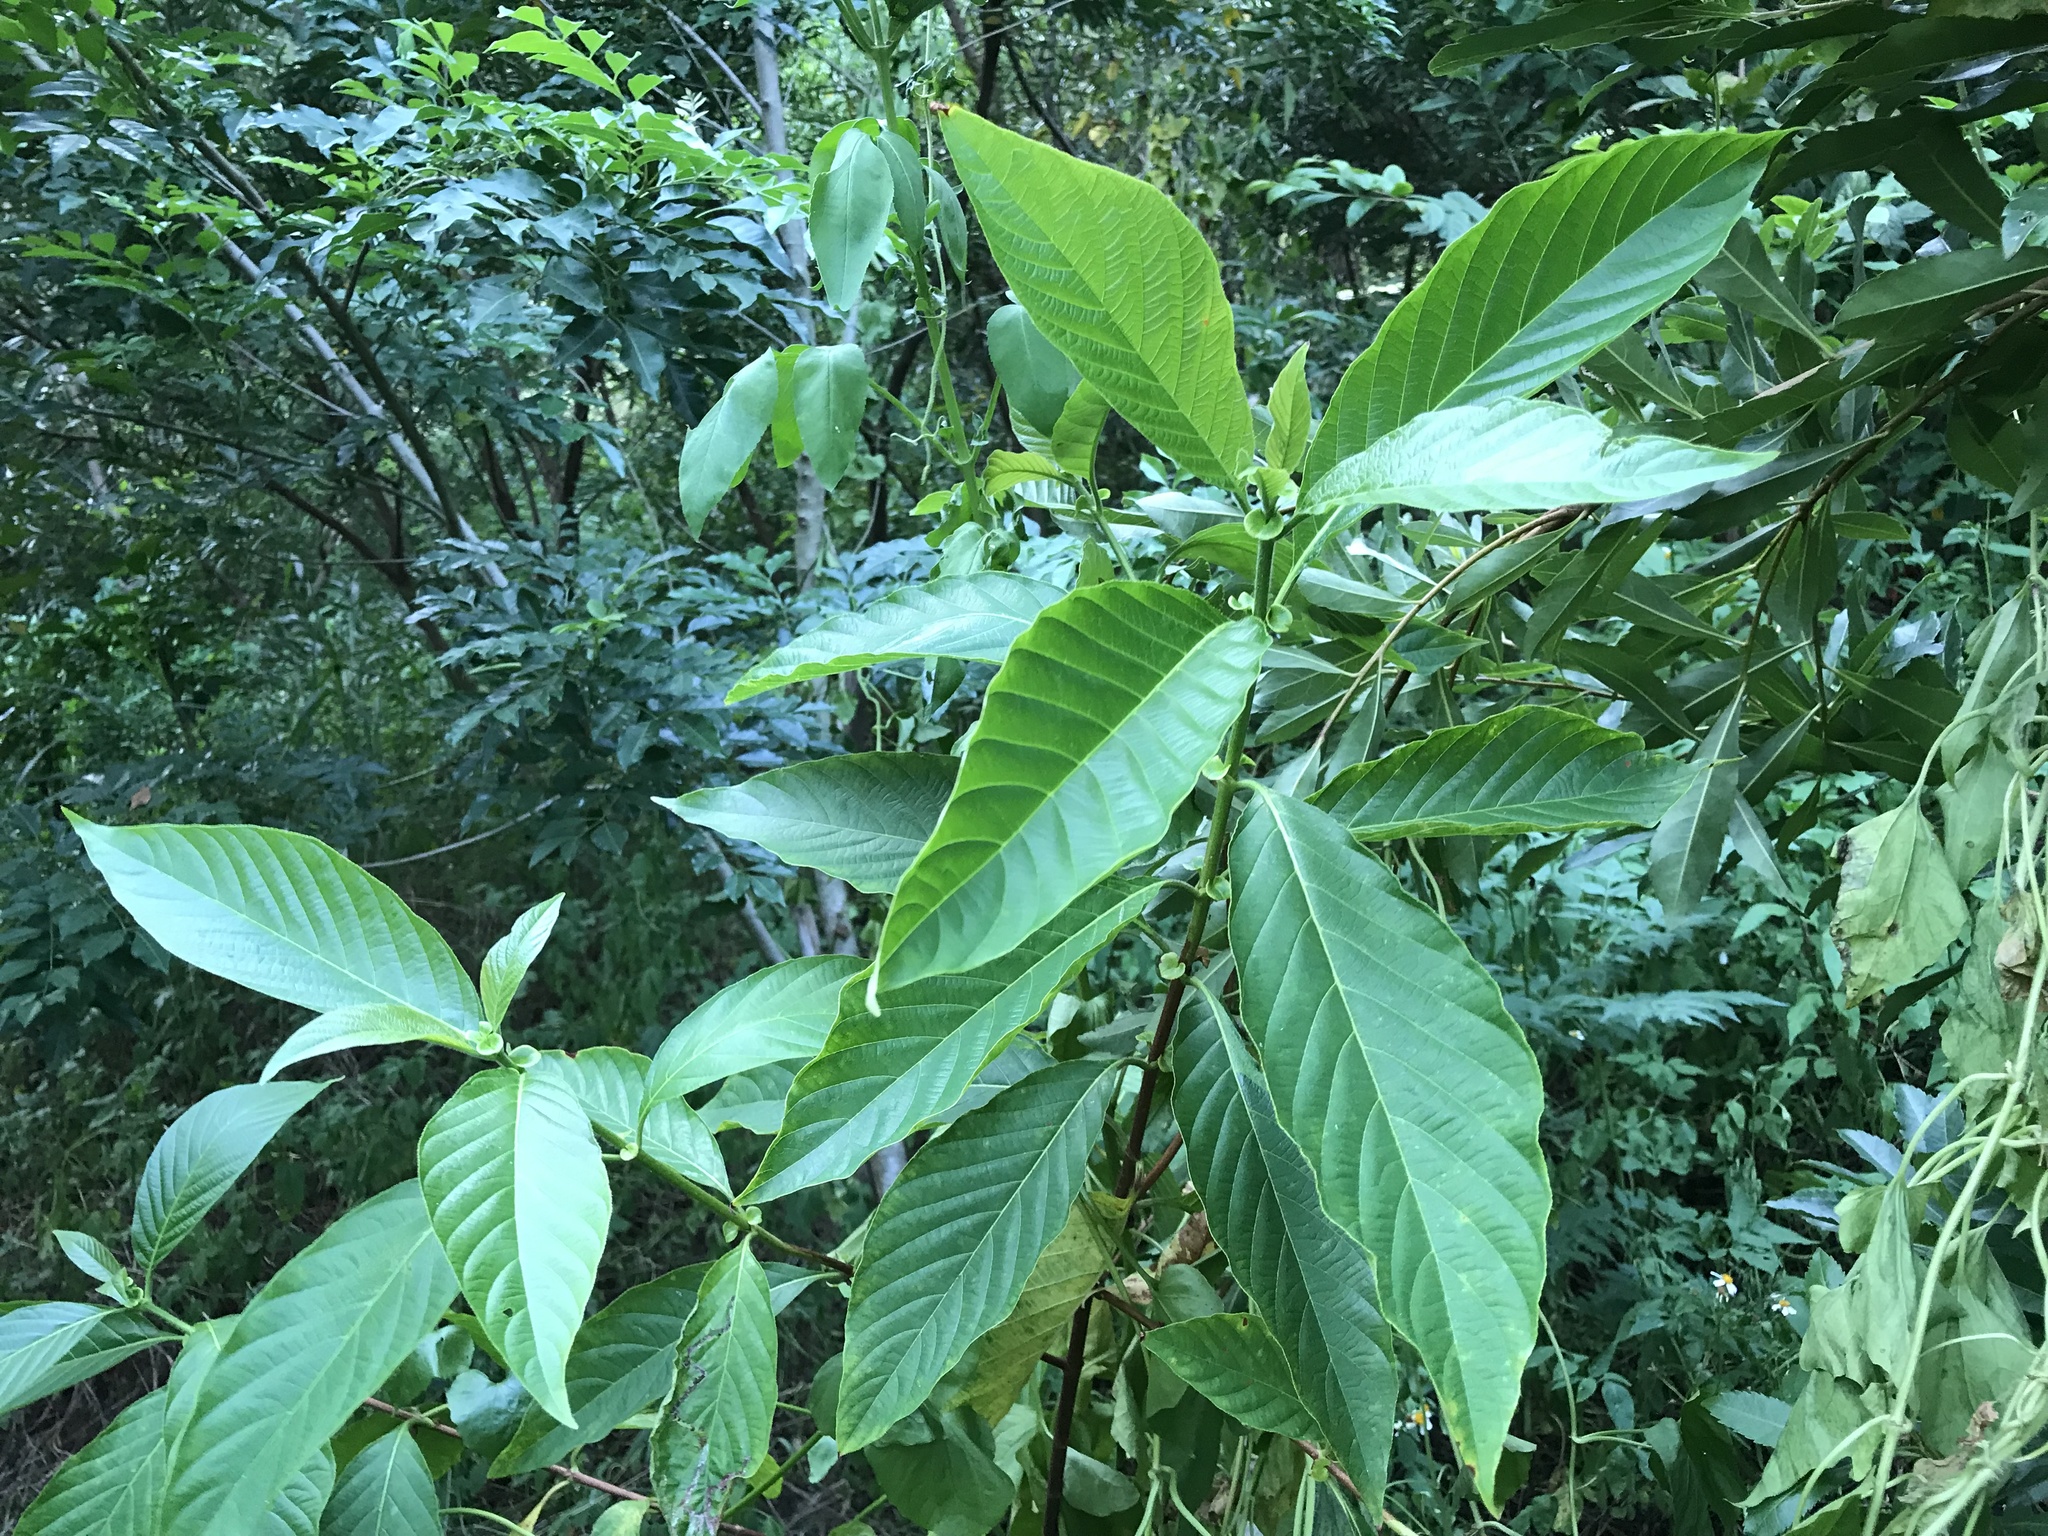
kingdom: Plantae
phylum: Tracheophyta
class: Magnoliopsida
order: Gentianales
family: Rubiaceae
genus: Wendlandia
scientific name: Wendlandia uvariifolia
